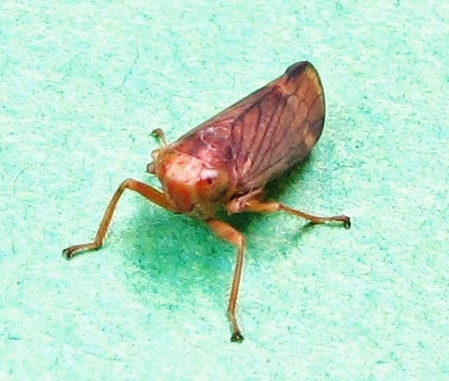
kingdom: Animalia
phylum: Arthropoda
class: Insecta
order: Hemiptera
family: Cicadellidae
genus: Jikradia
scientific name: Jikradia olitoria
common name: Coppery leafhopper
